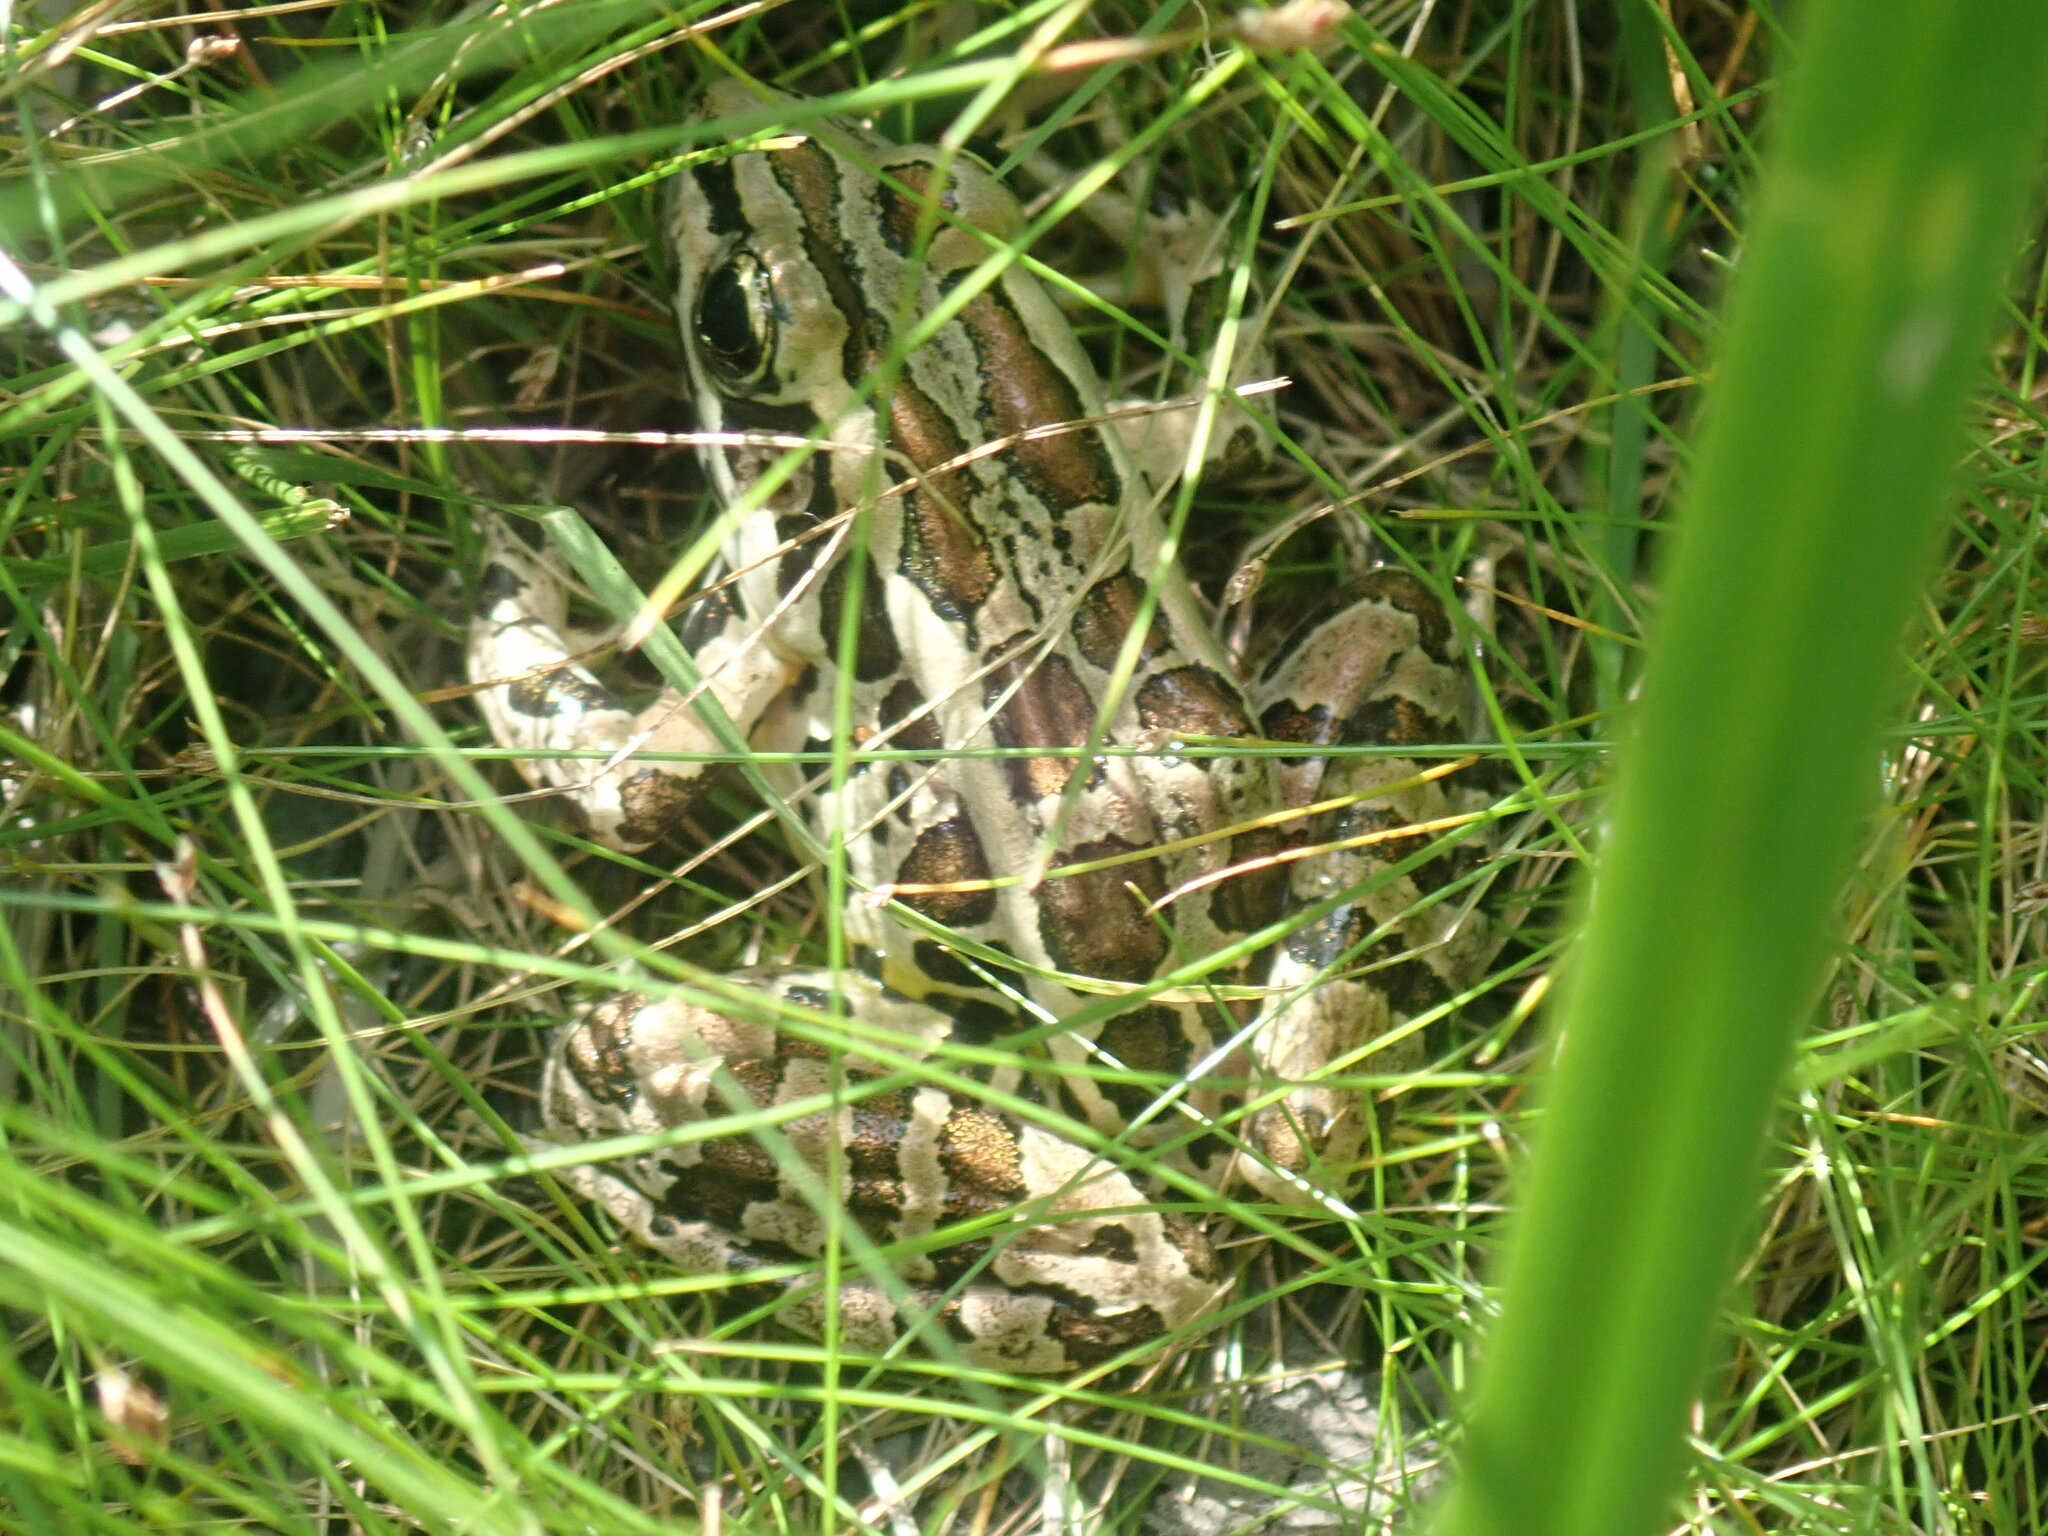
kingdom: Animalia
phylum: Chordata
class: Amphibia
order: Anura
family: Ranidae
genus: Lithobates
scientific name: Lithobates palustris
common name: Pickerel frog
